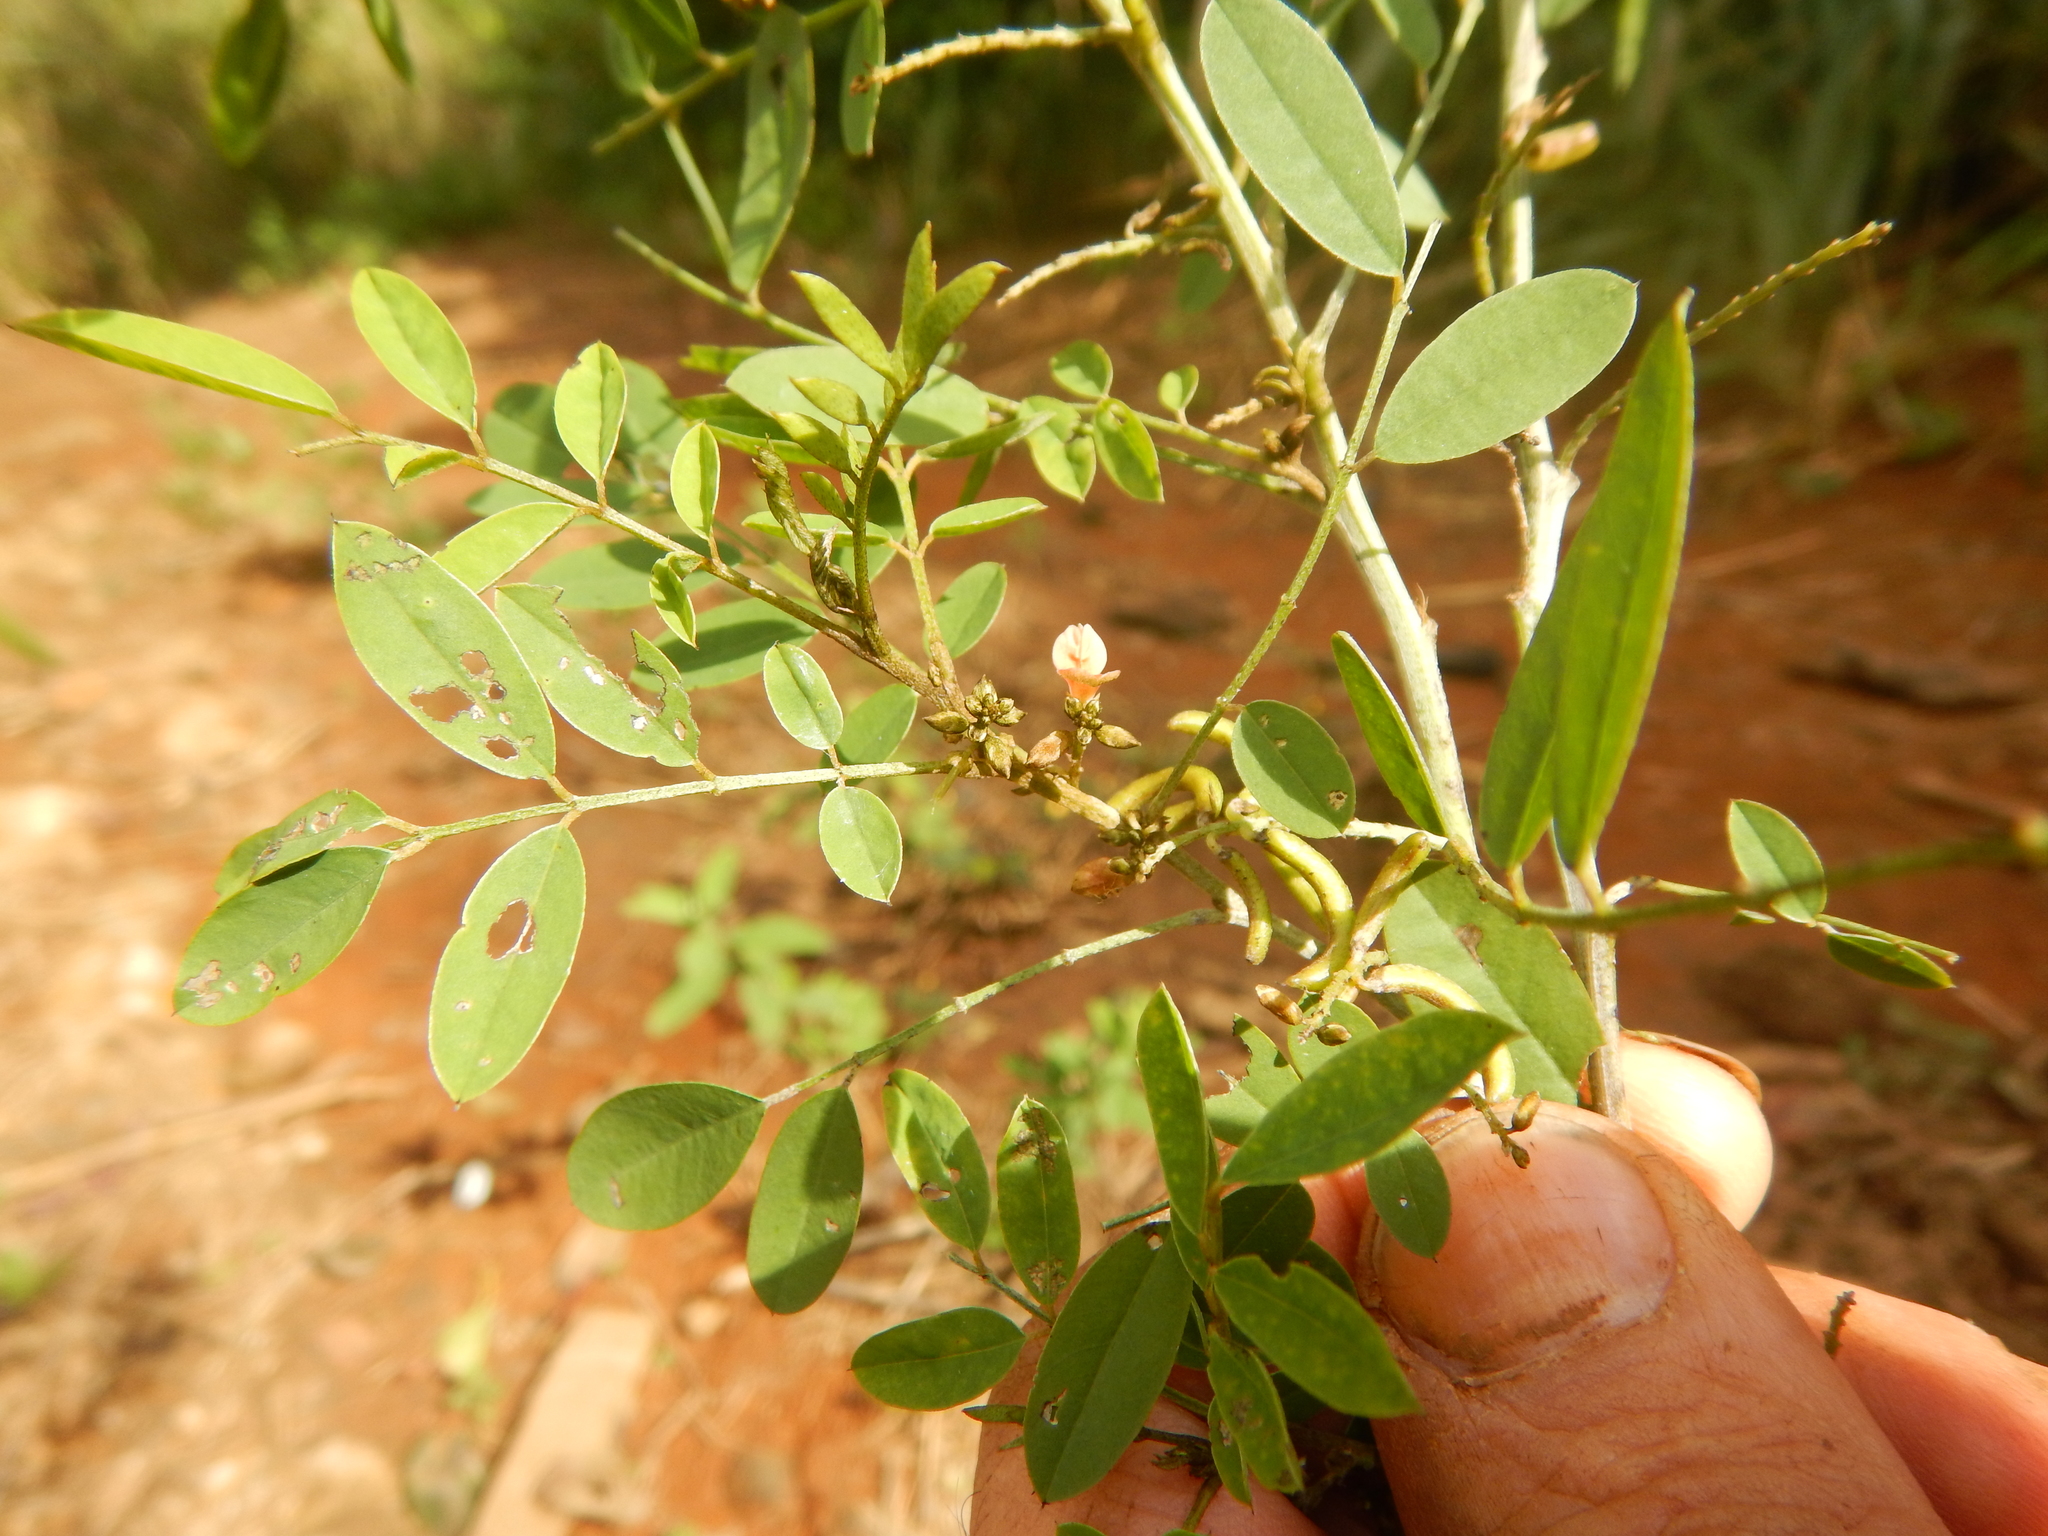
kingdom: Plantae
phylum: Tracheophyta
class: Magnoliopsida
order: Fabales
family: Fabaceae
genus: Indigofera
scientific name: Indigofera suffruticosa
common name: Anil de pasto
